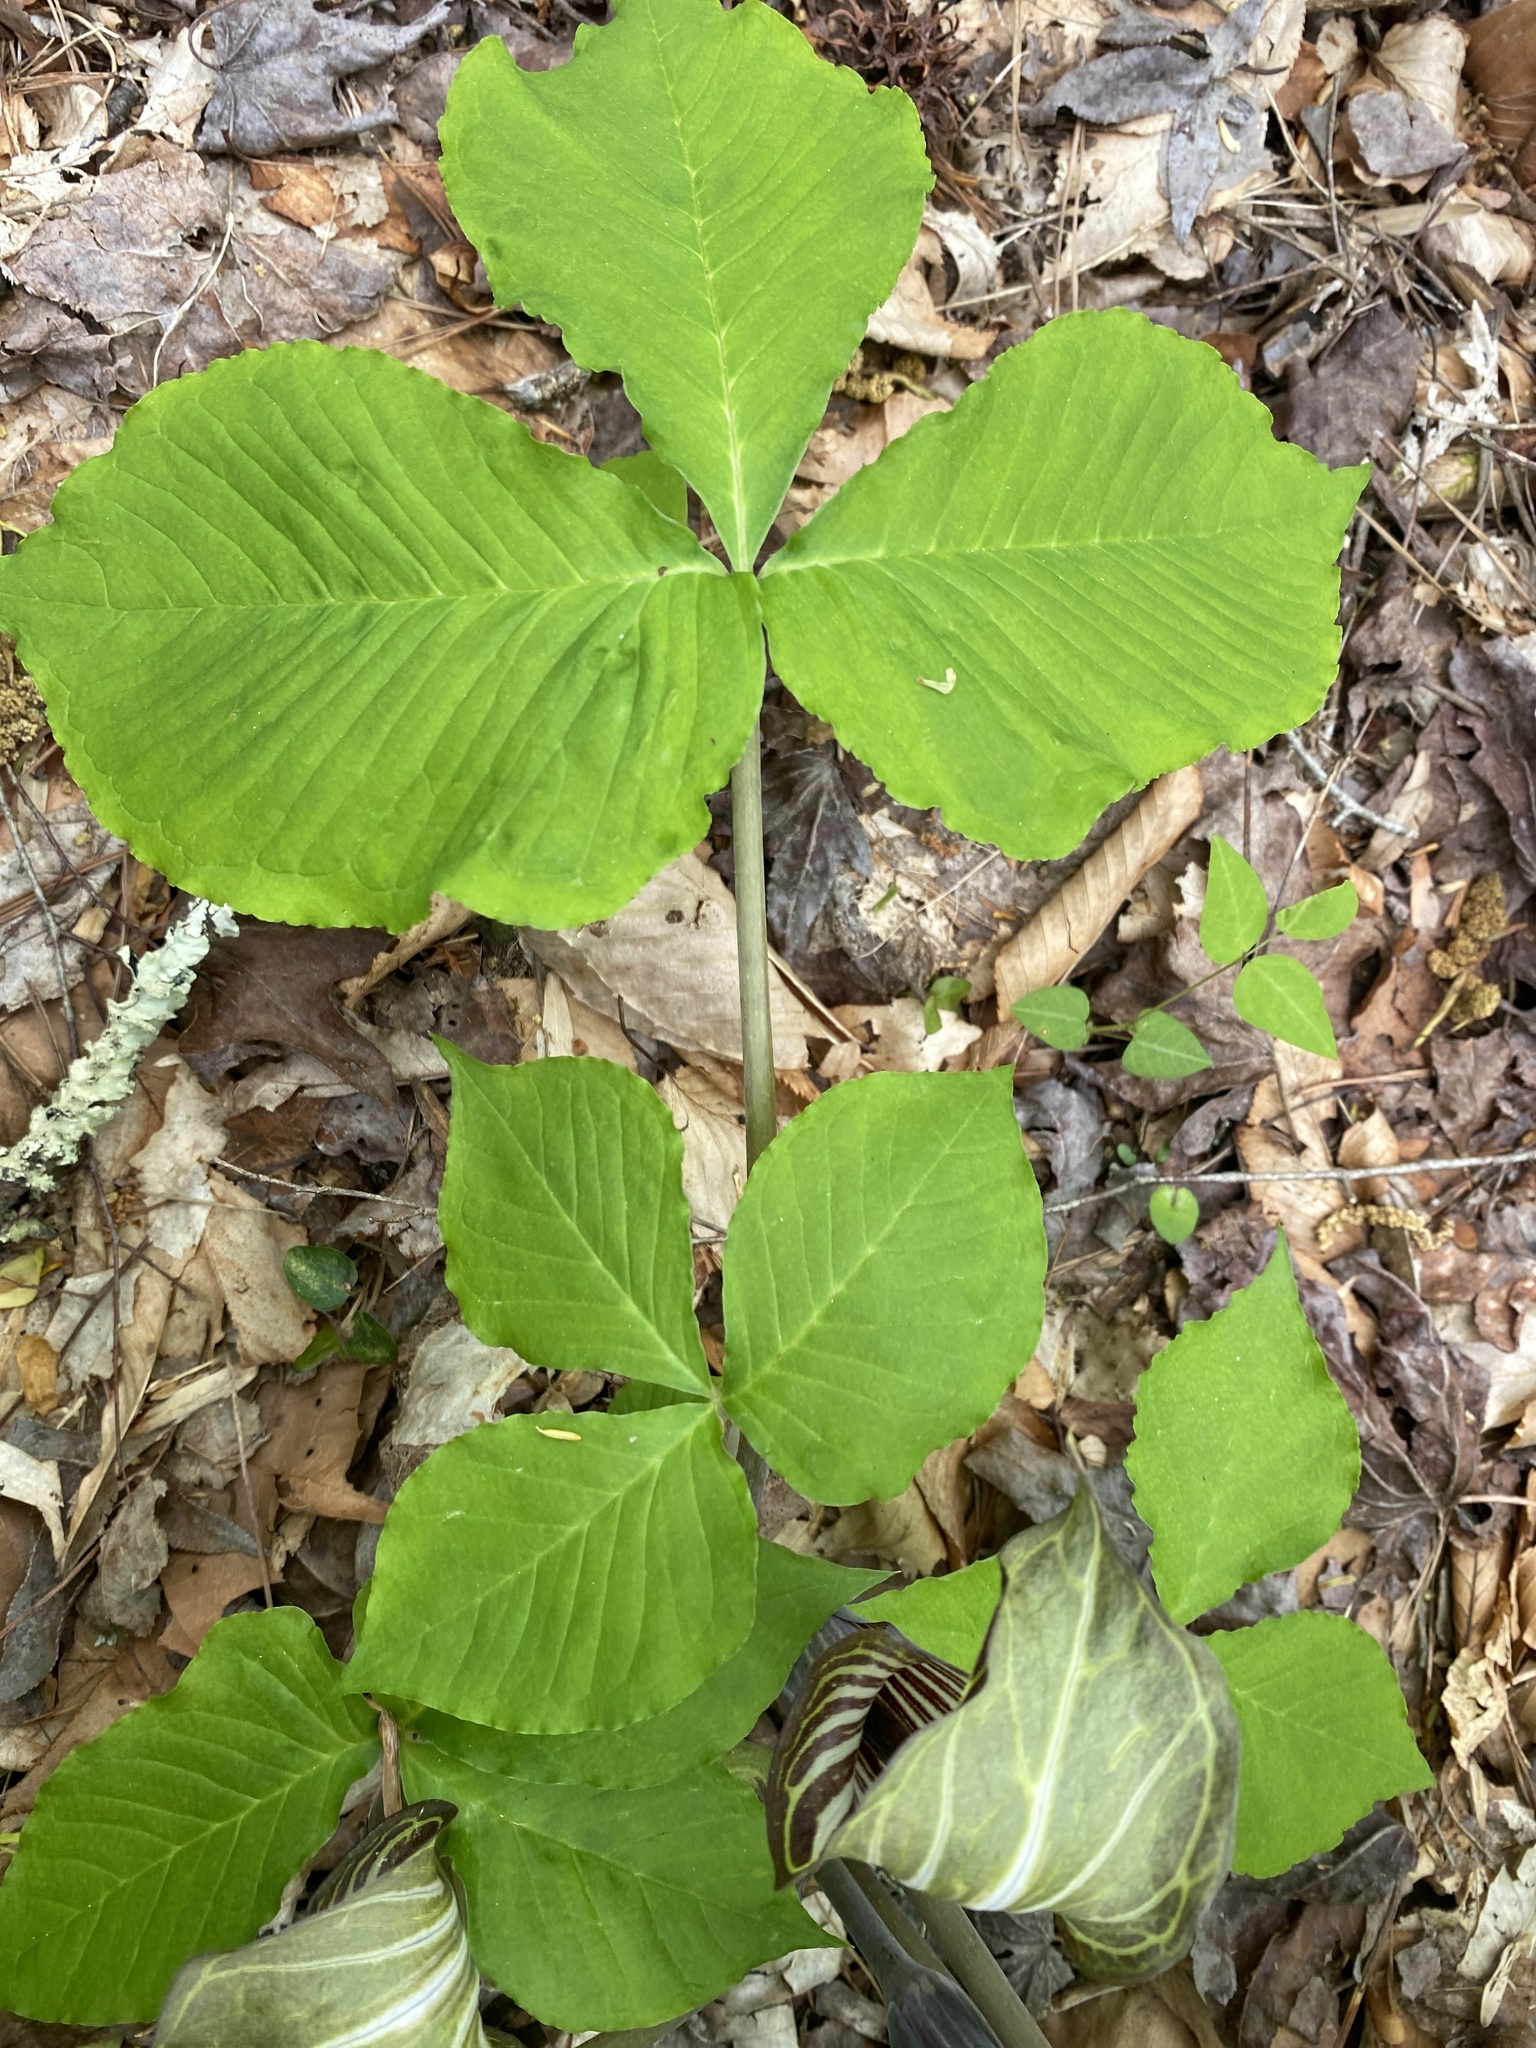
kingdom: Plantae
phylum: Tracheophyta
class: Liliopsida
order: Alismatales
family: Araceae
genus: Arisaema
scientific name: Arisaema triphyllum
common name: Jack-in-the-pulpit
